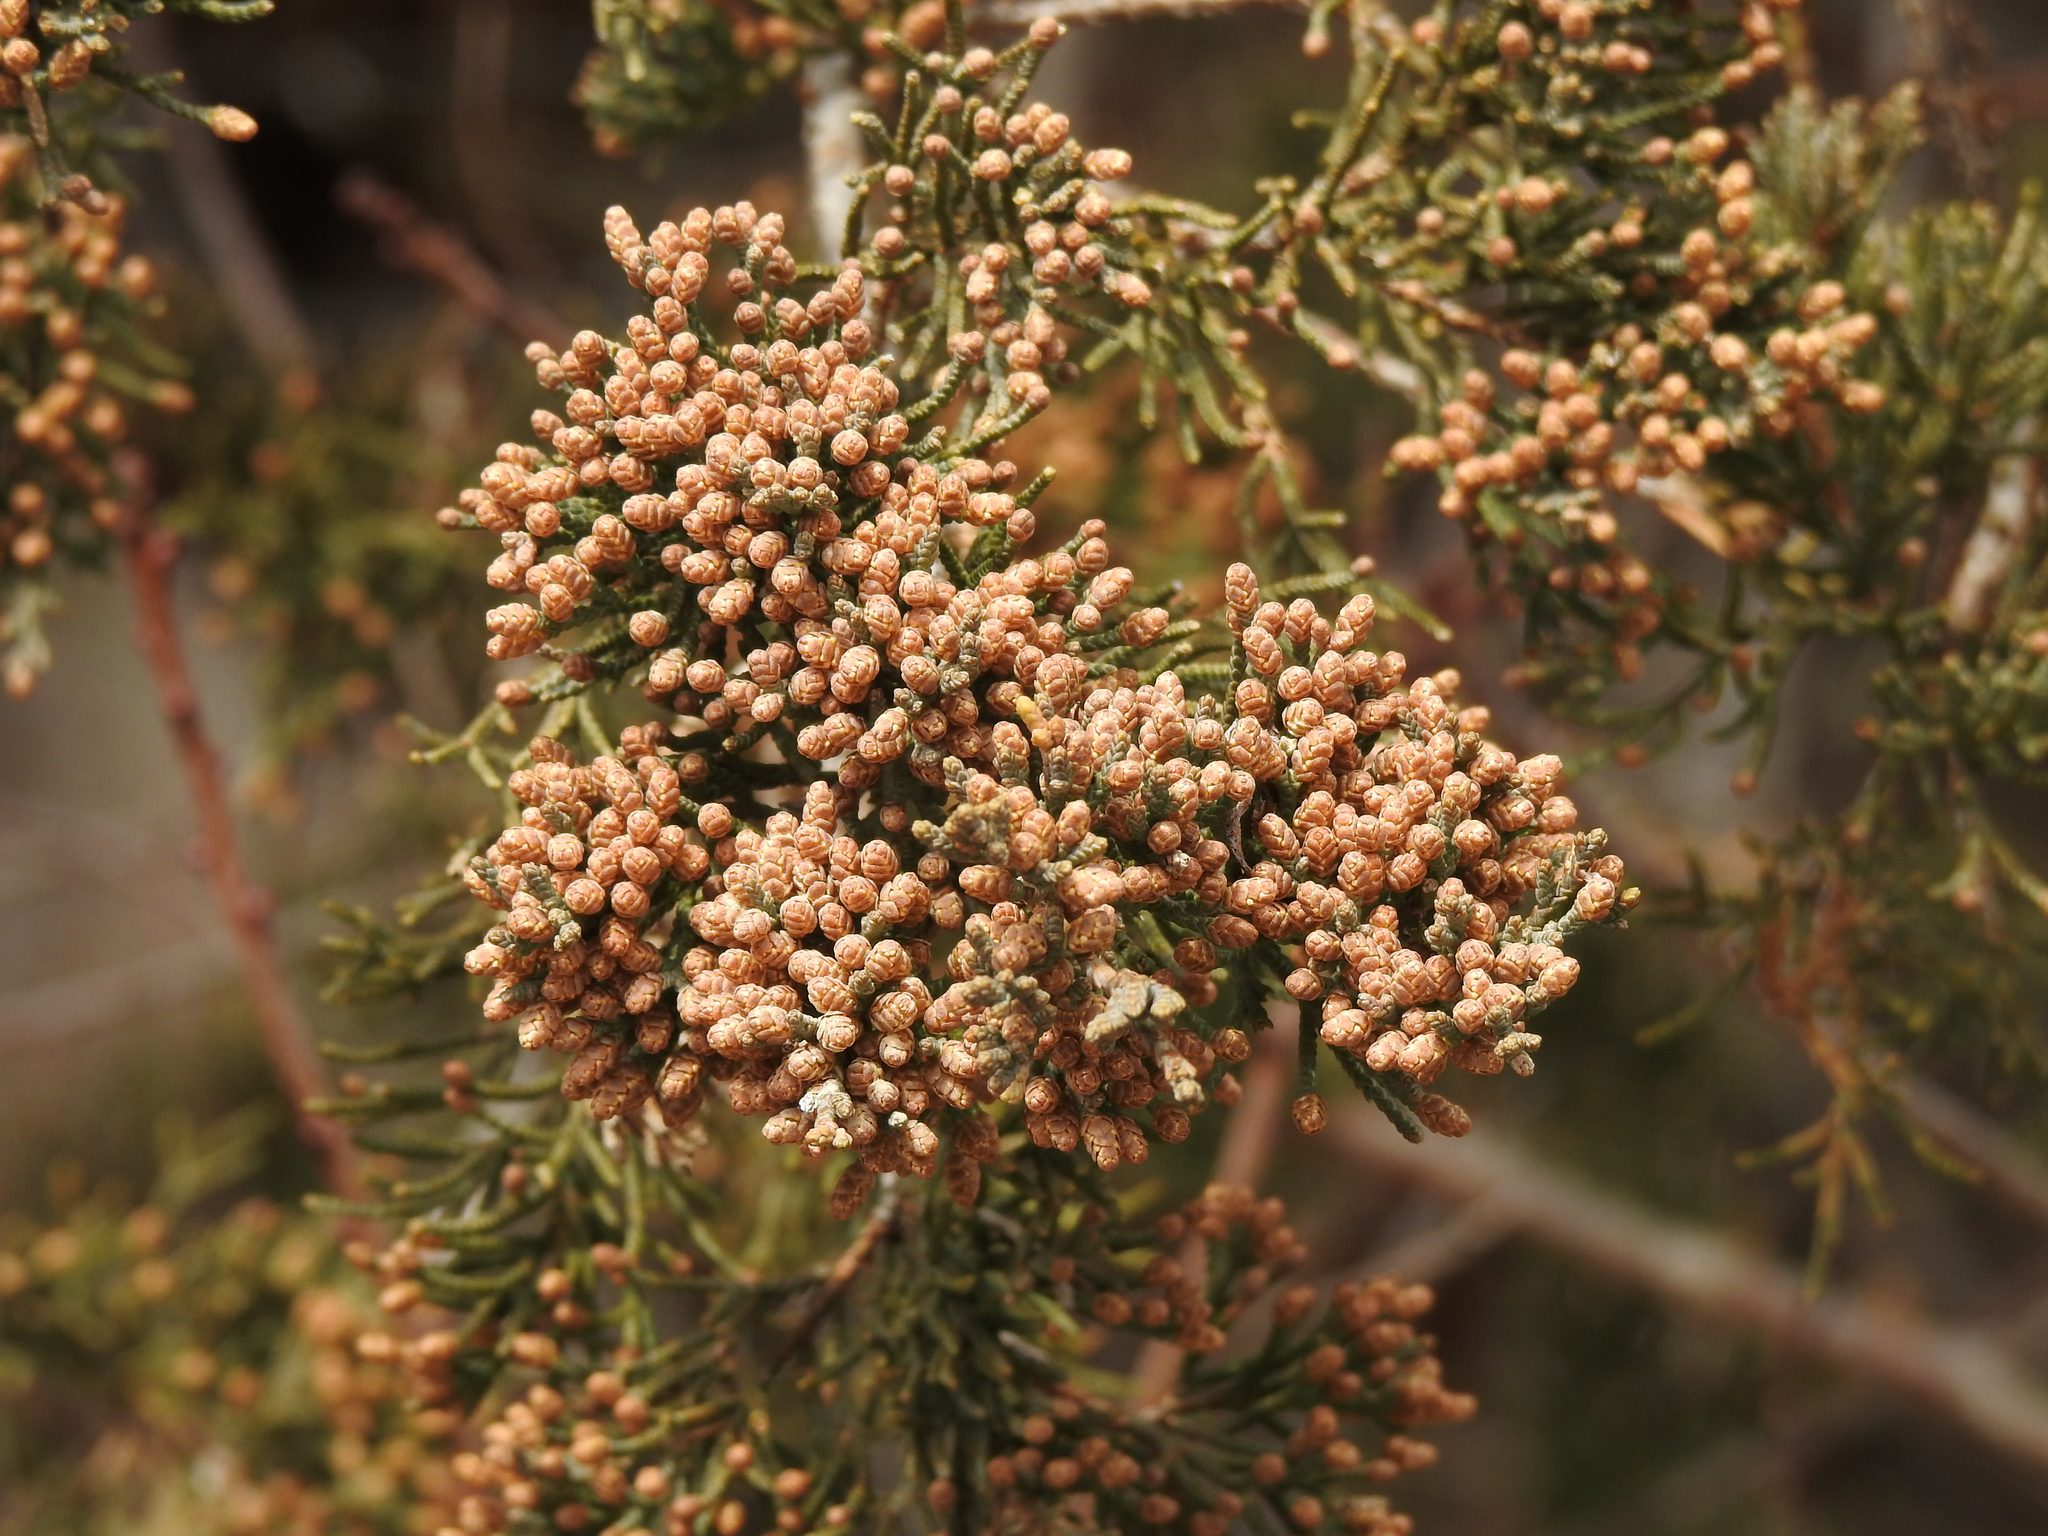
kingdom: Plantae
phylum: Tracheophyta
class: Pinopsida
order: Pinales
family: Cupressaceae
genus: Juniperus
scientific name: Juniperus virginiana
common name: Red juniper
